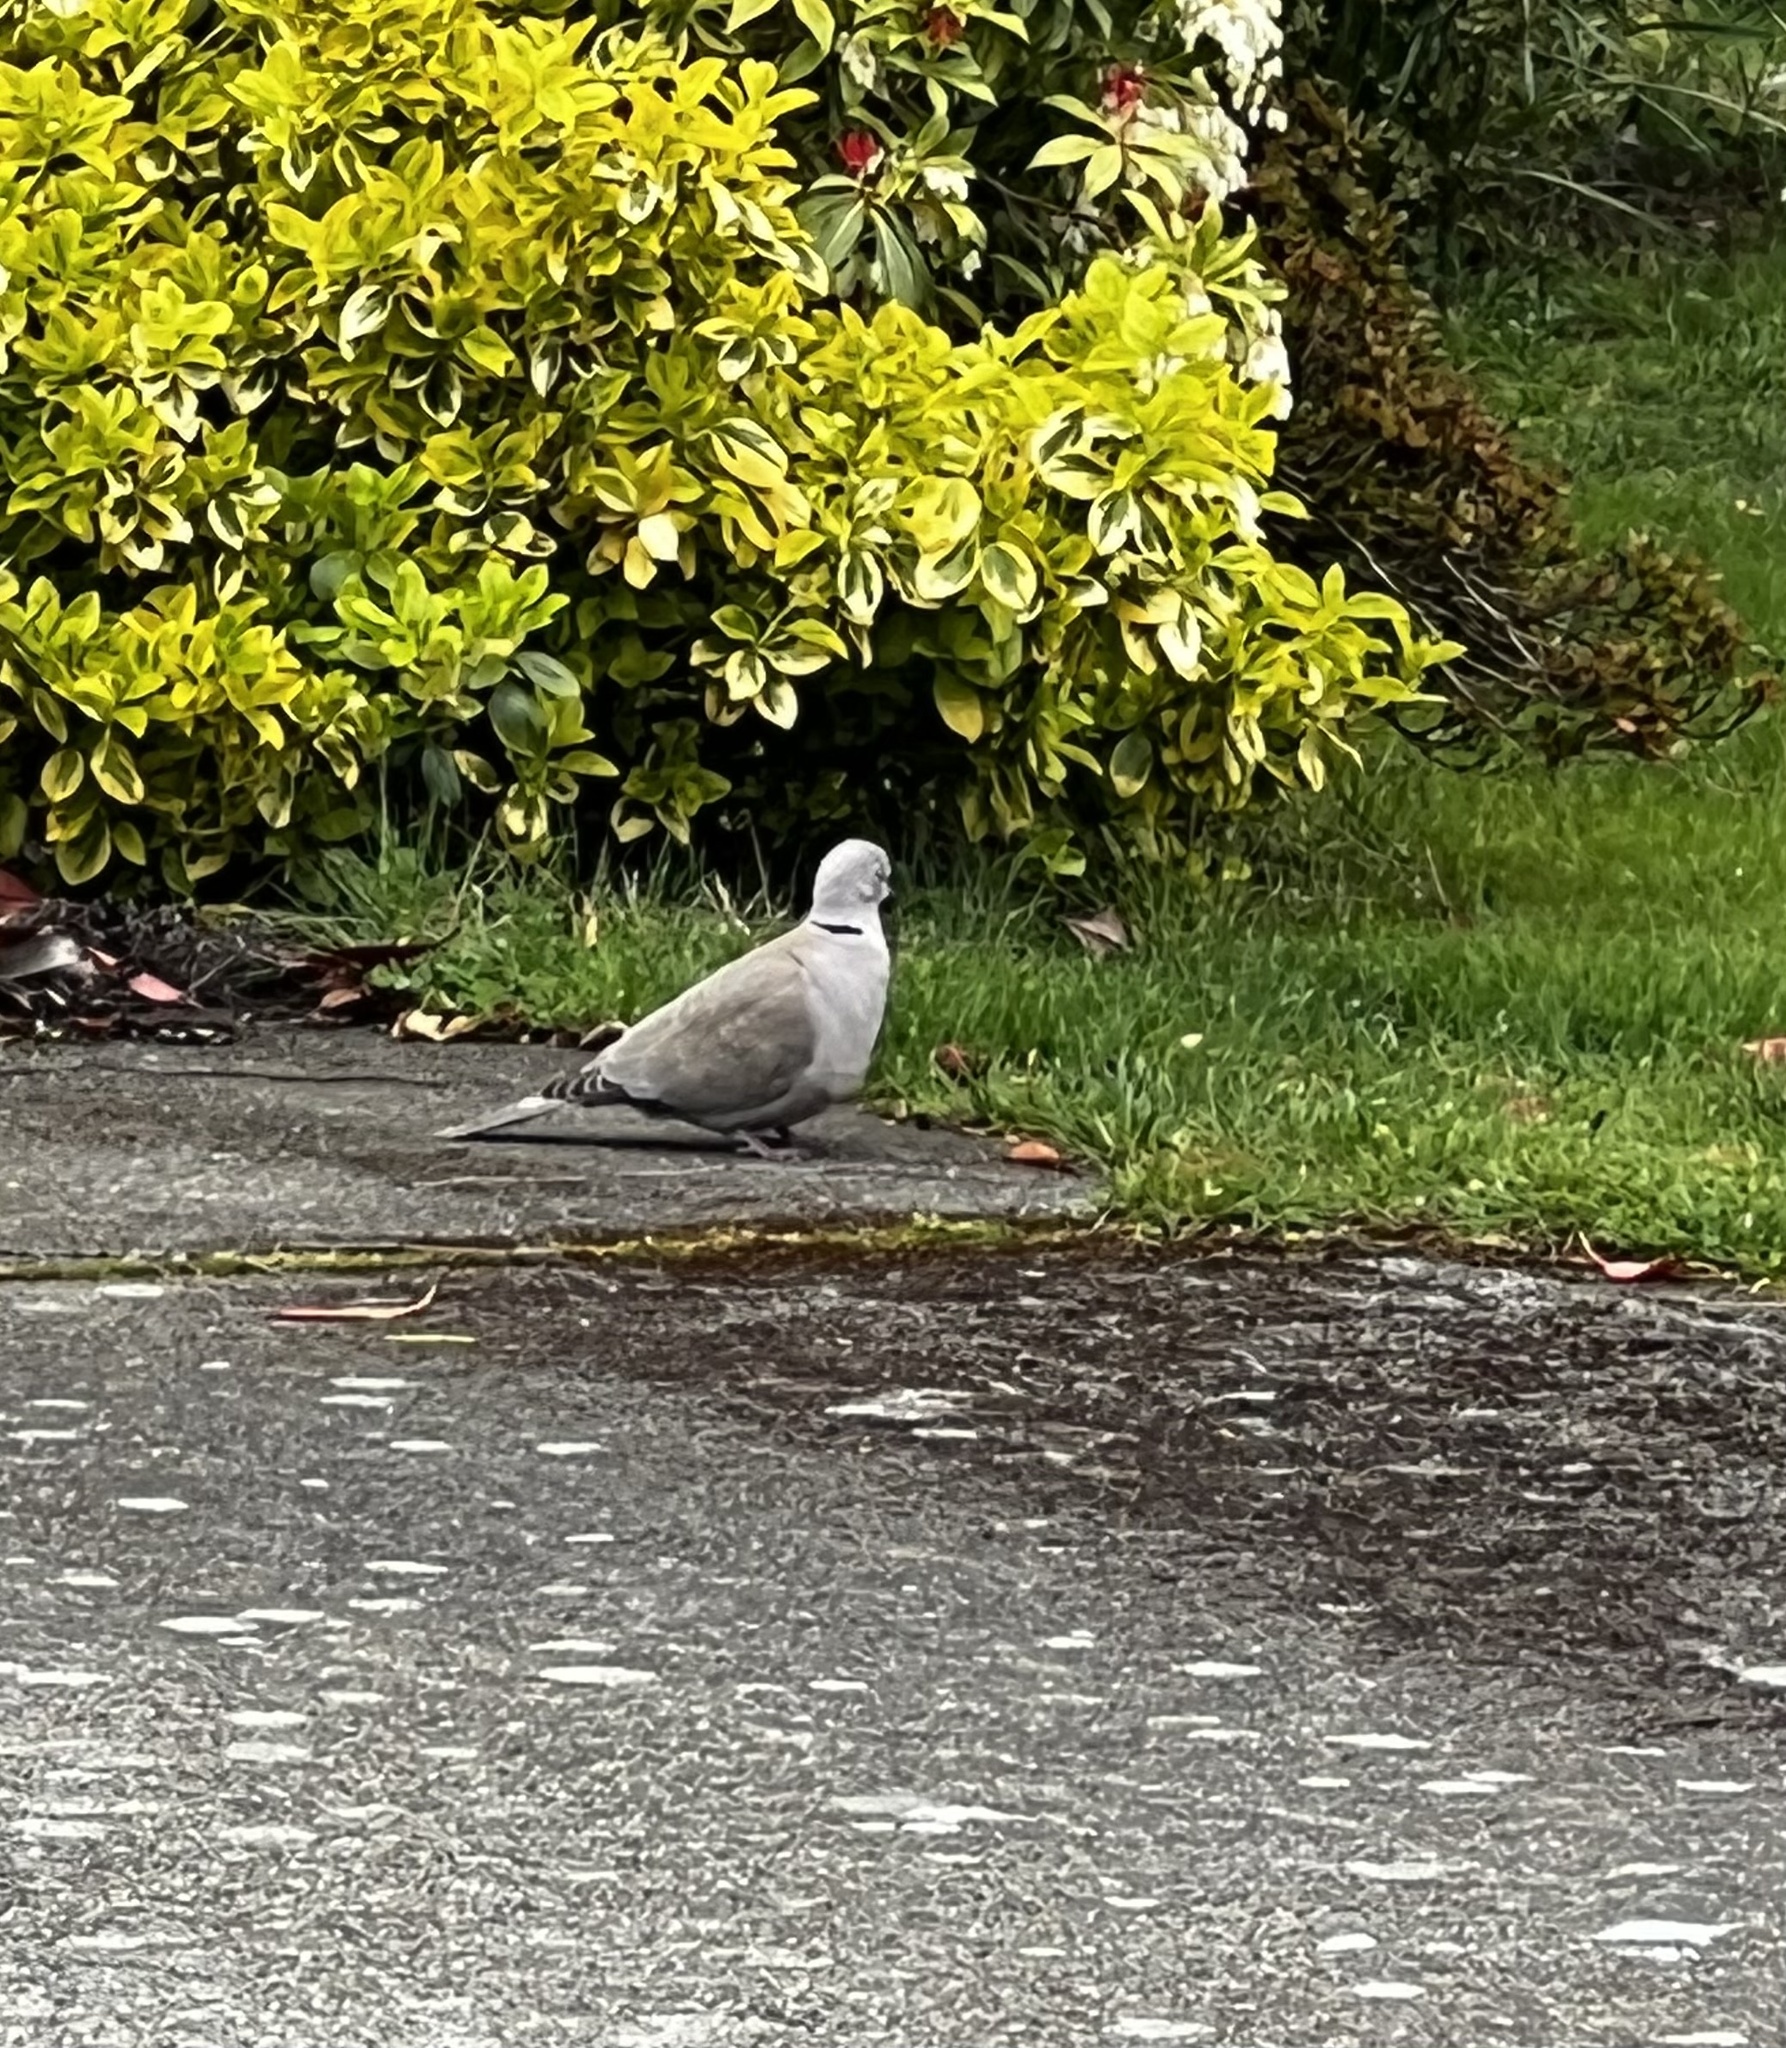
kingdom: Animalia
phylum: Chordata
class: Aves
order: Columbiformes
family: Columbidae
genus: Streptopelia
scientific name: Streptopelia decaocto
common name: Eurasian collared dove
